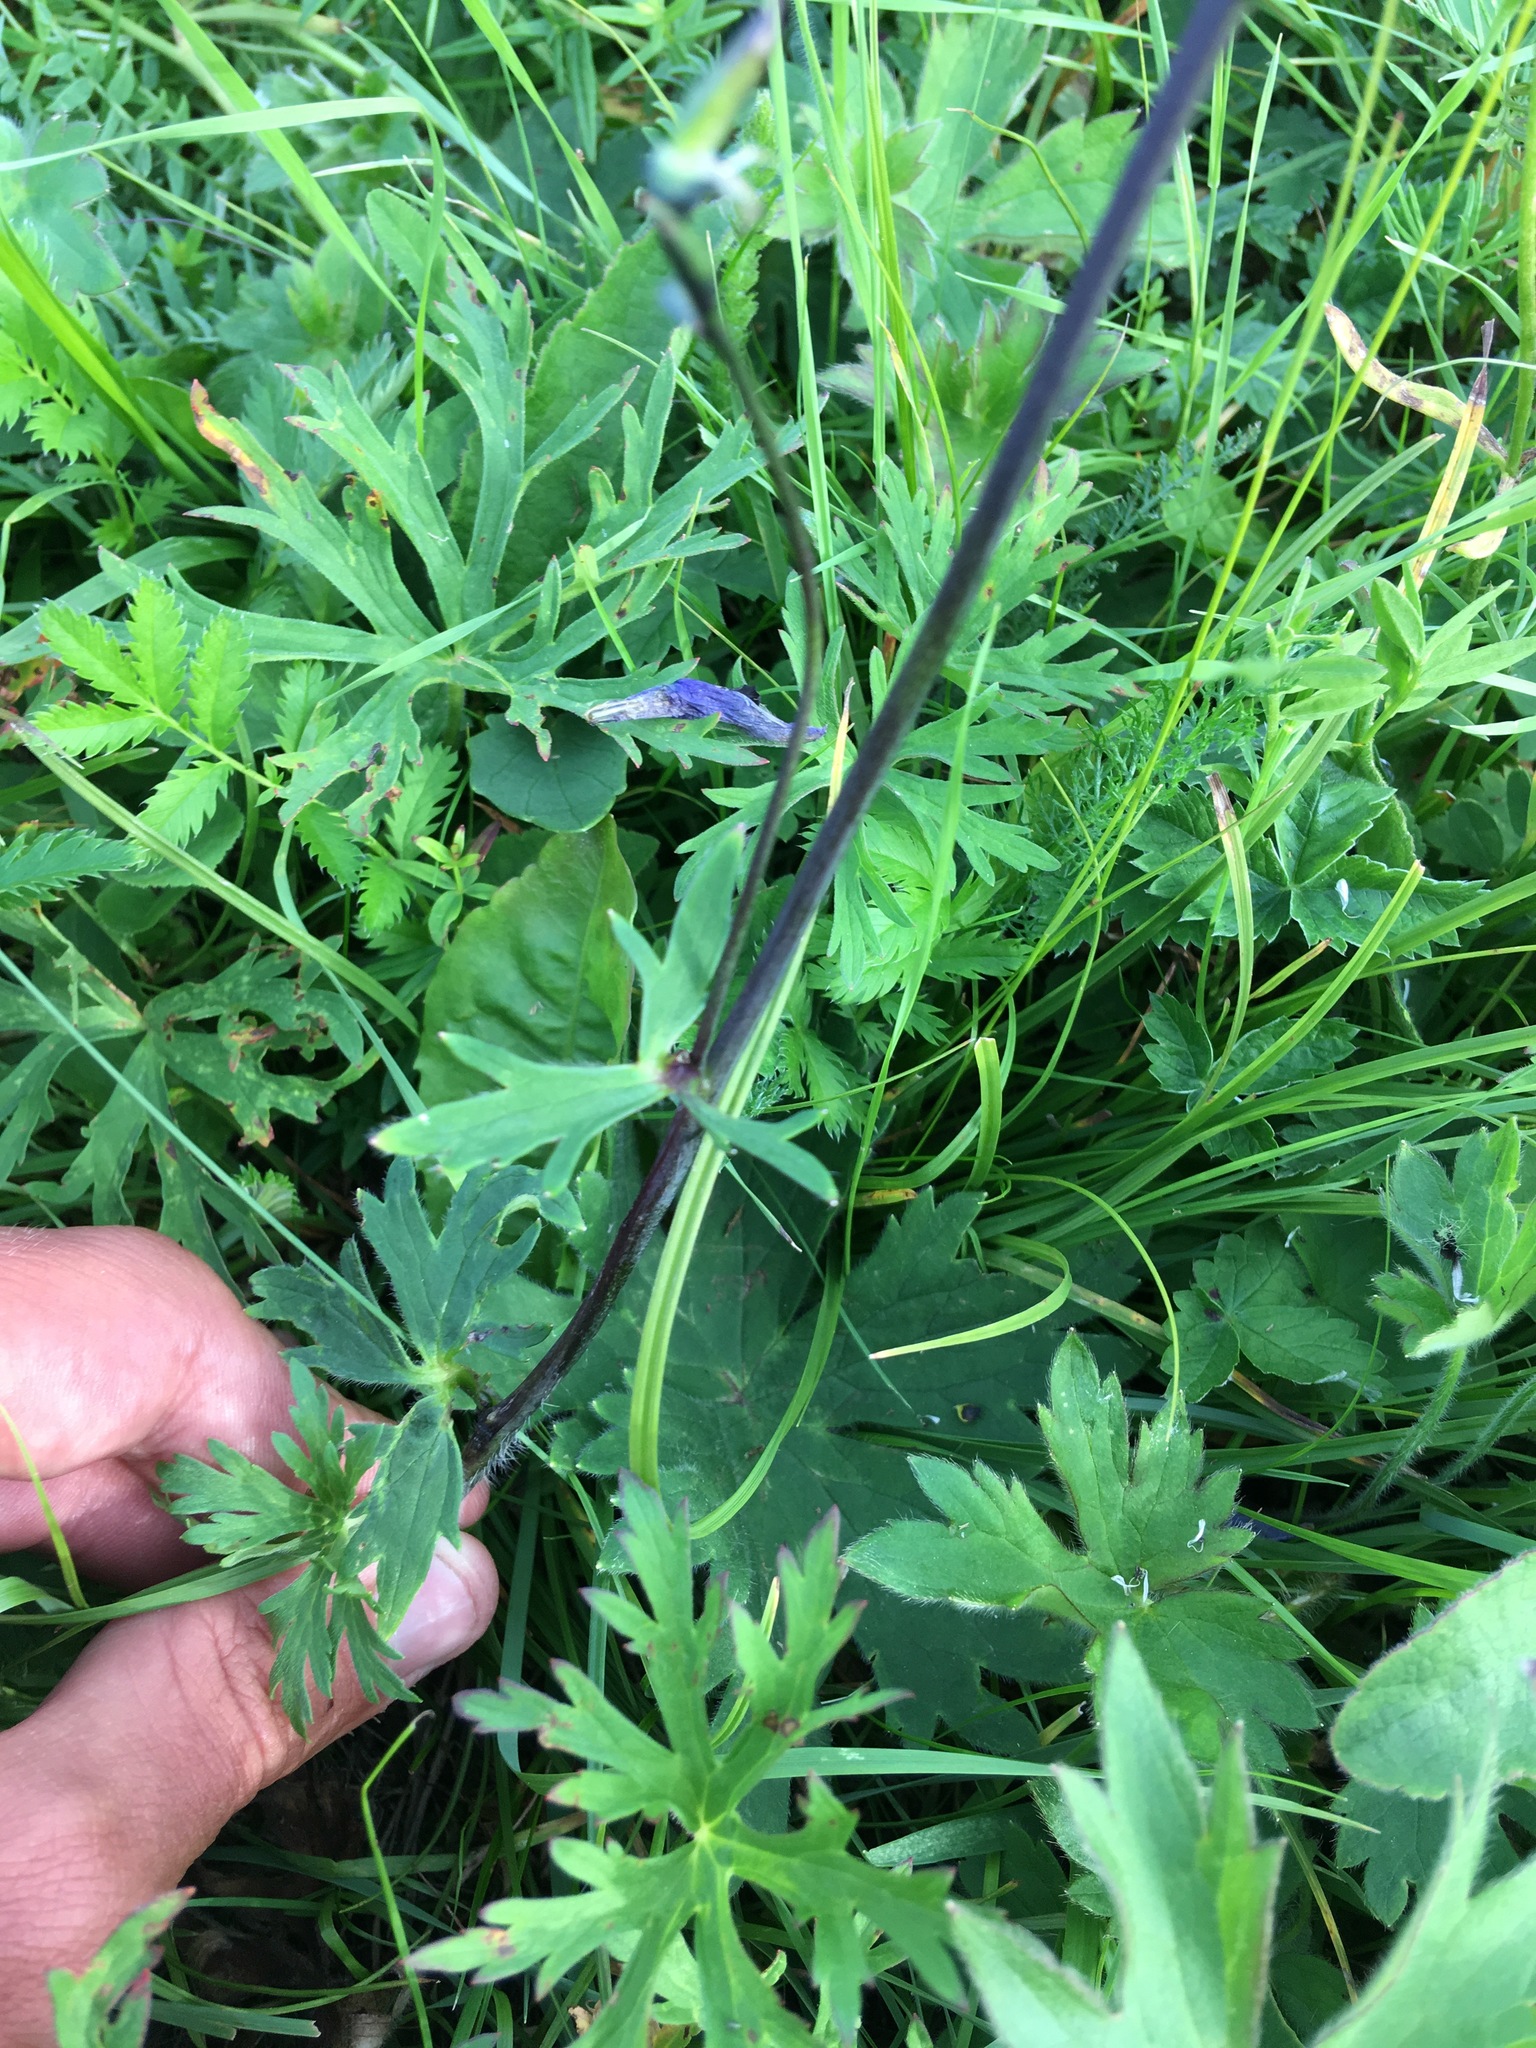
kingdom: Plantae
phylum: Tracheophyta
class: Magnoliopsida
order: Ranunculales
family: Ranunculaceae
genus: Delphinium
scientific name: Delphinium crassifolium
